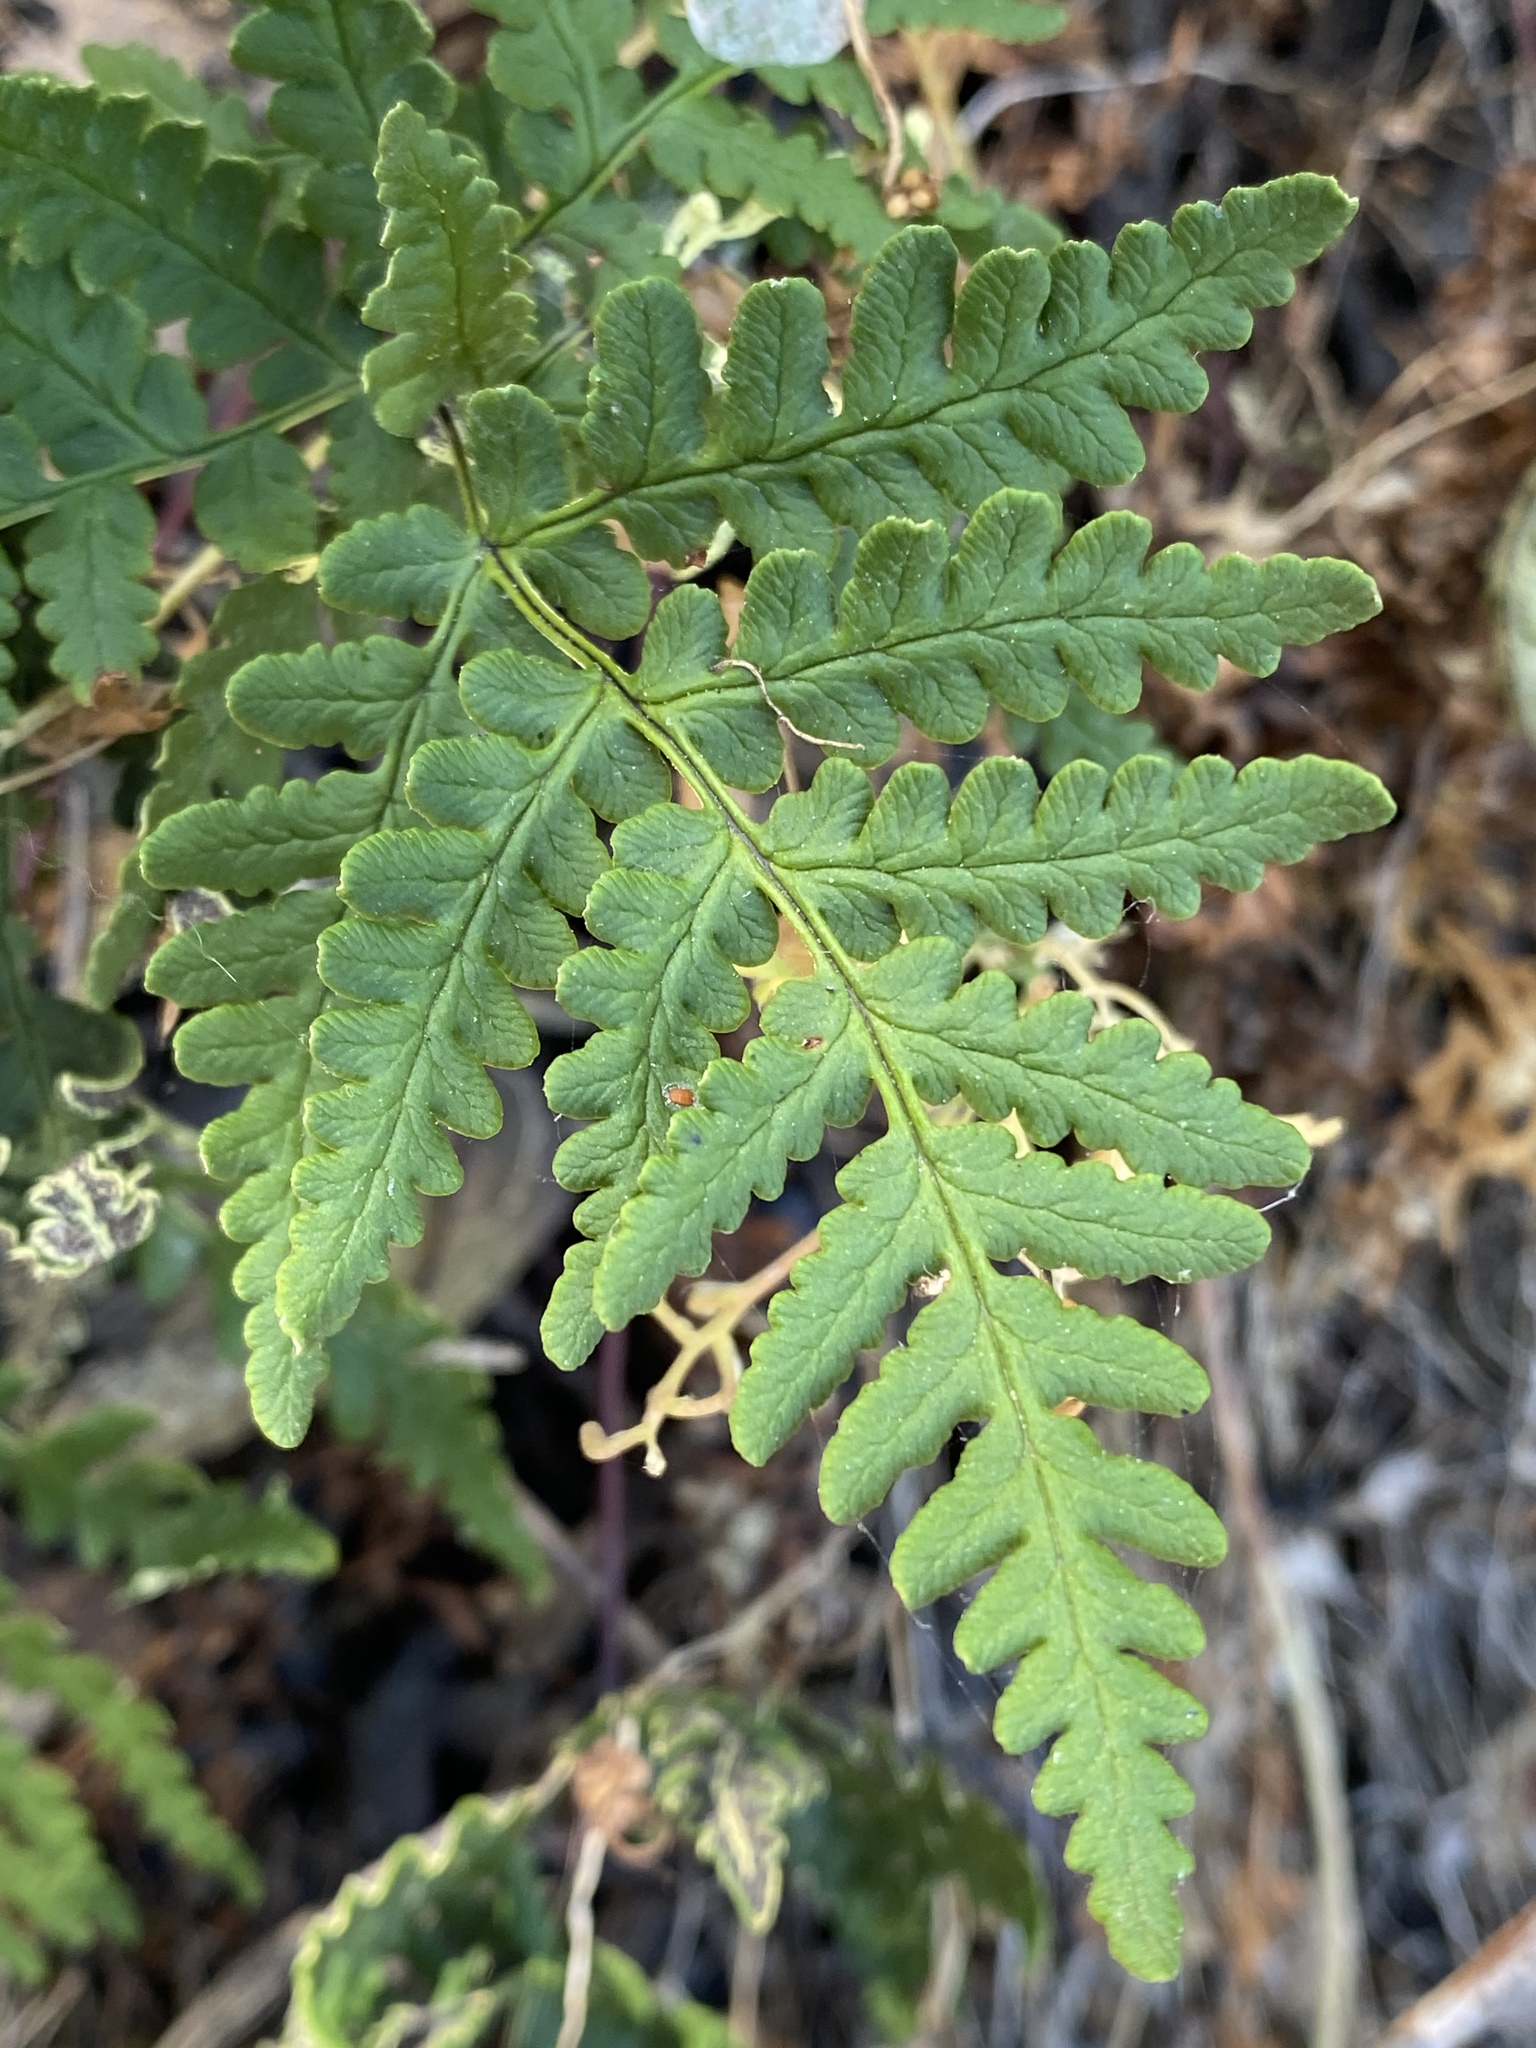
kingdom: Plantae
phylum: Tracheophyta
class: Polypodiopsida
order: Polypodiales
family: Pteridaceae
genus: Pentagramma
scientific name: Pentagramma triangularis
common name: Gold fern
